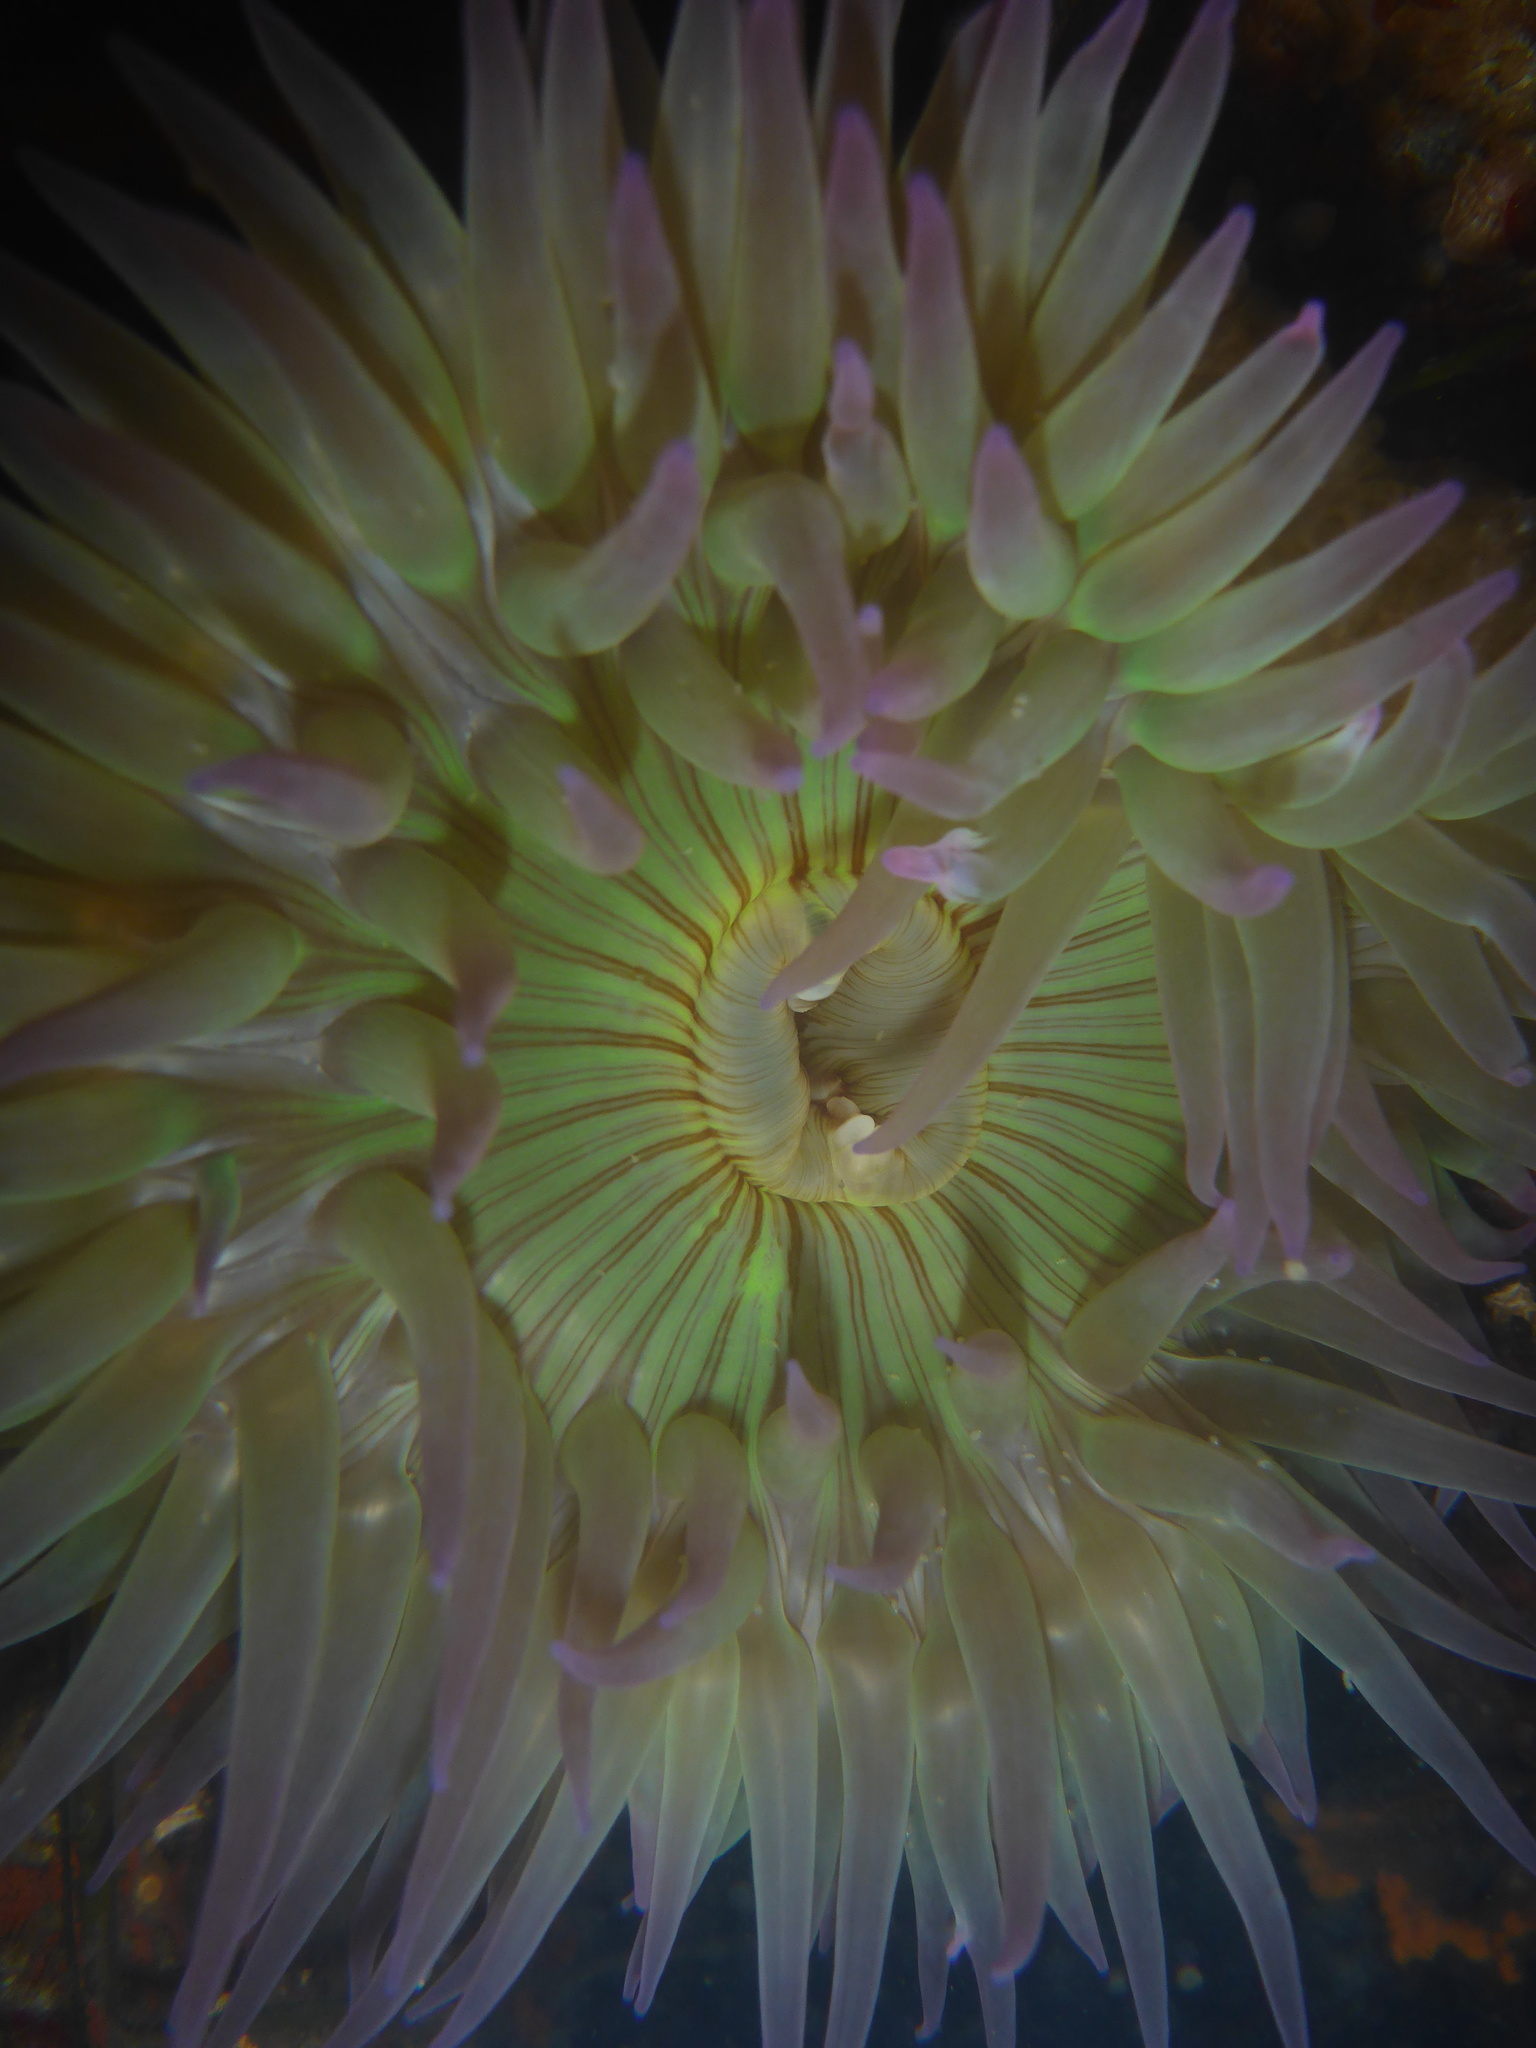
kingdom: Animalia
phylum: Cnidaria
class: Anthozoa
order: Actiniaria
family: Actiniidae
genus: Anthopleura
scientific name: Anthopleura sola
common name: Sun anemone
